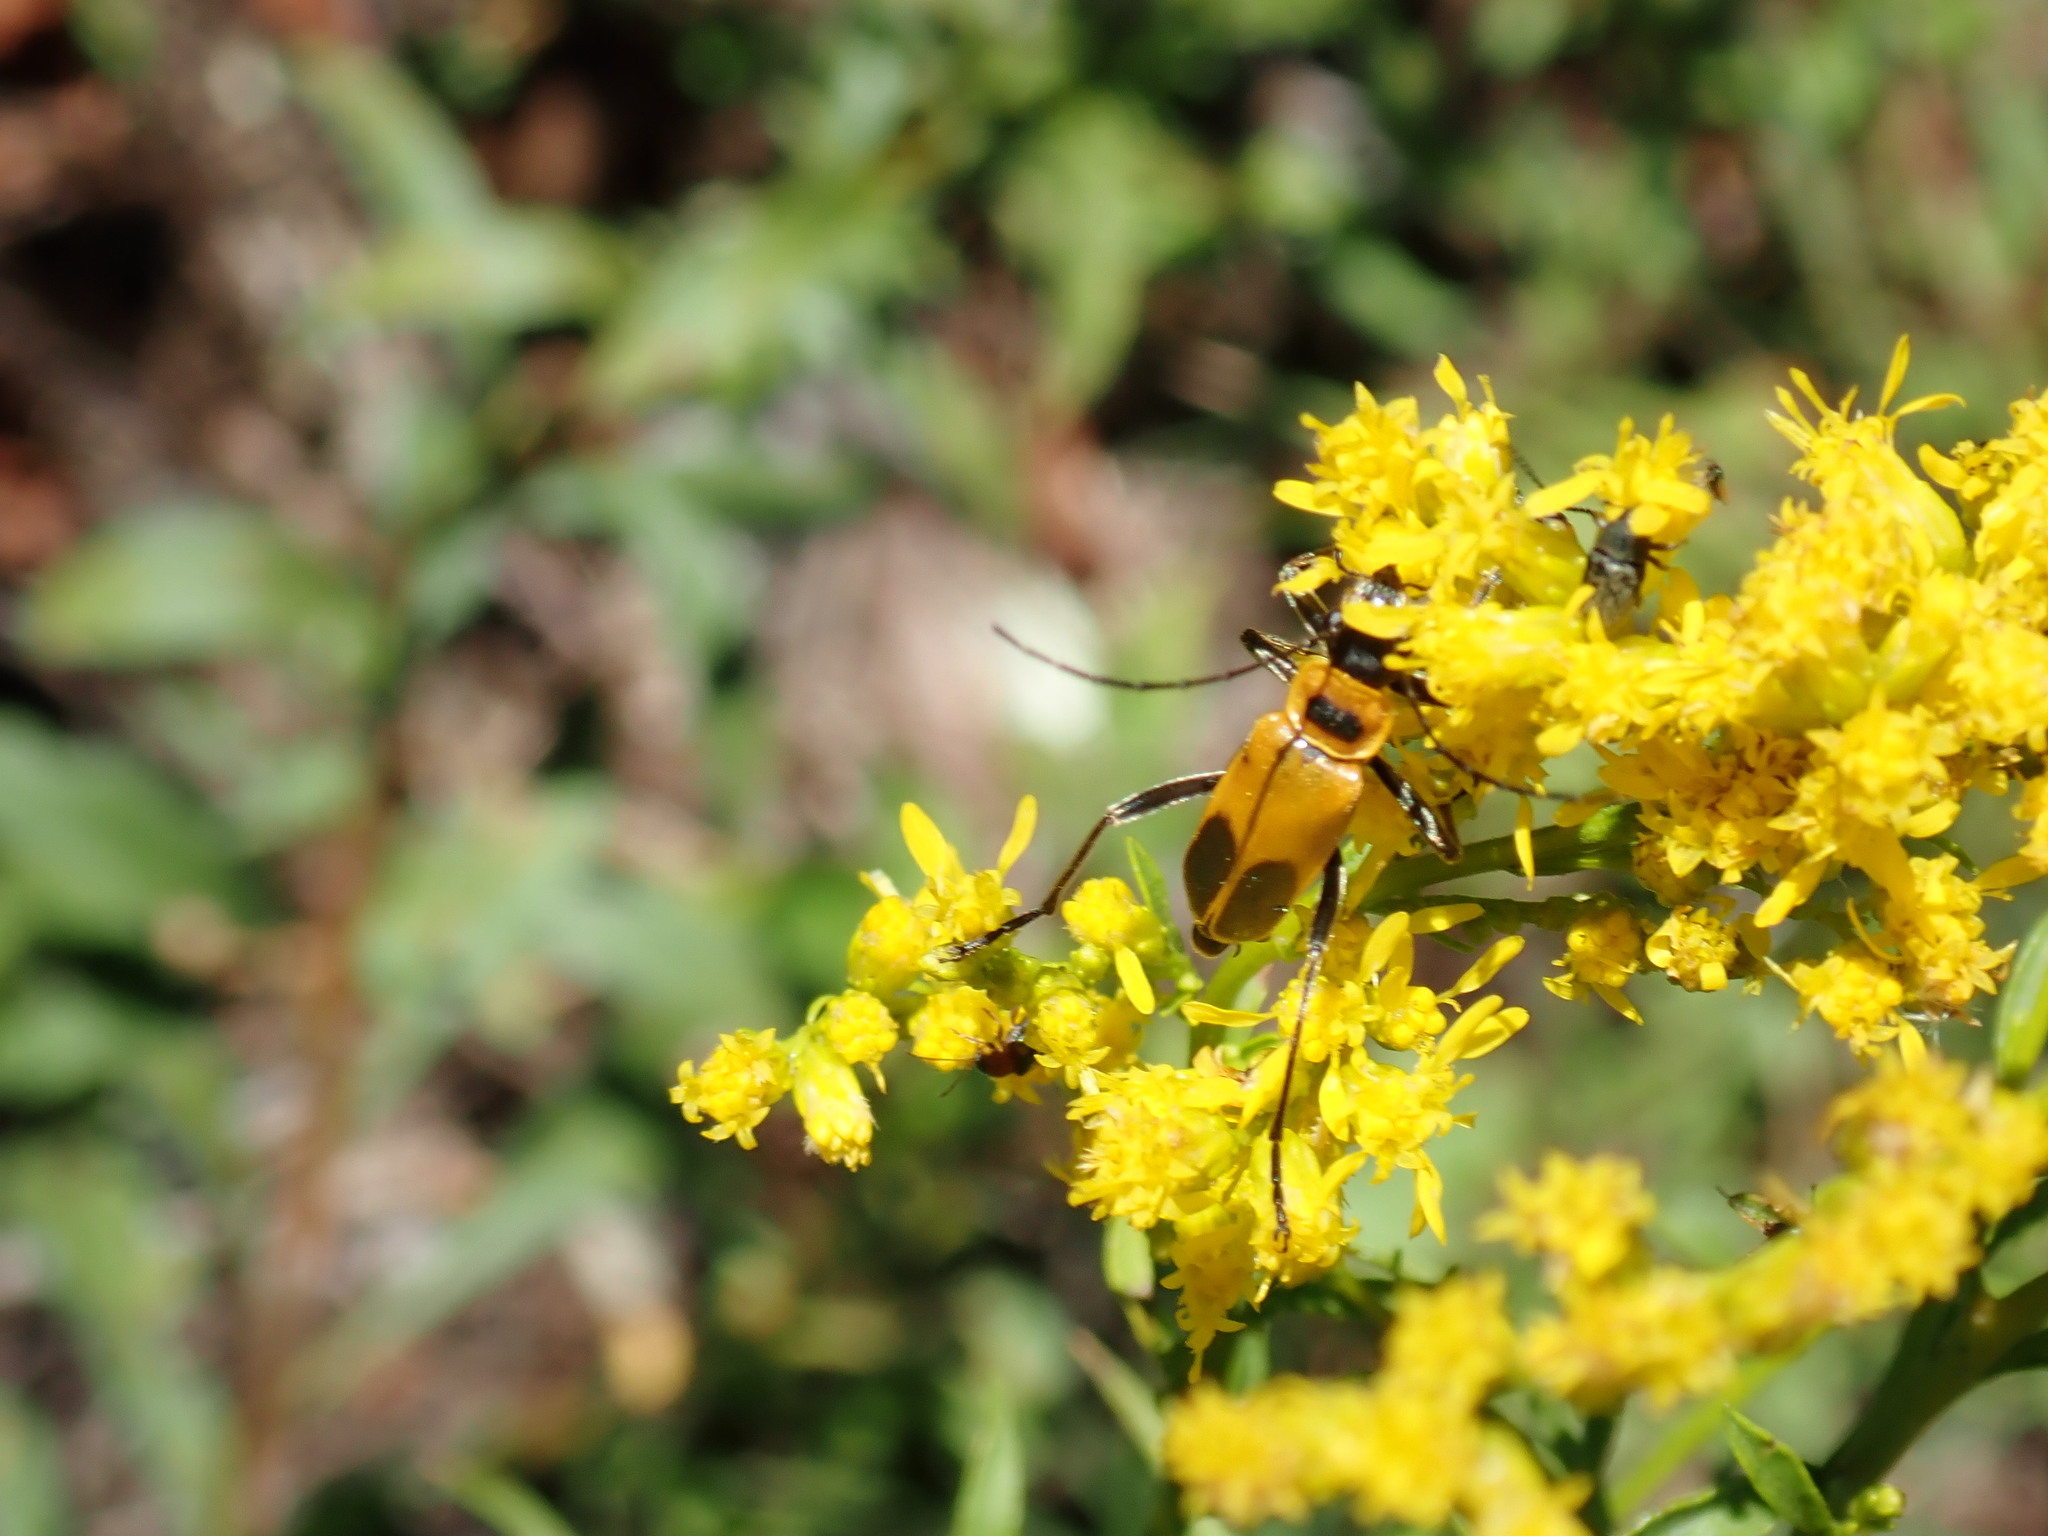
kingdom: Animalia
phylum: Arthropoda
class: Insecta
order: Coleoptera
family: Cantharidae
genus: Chauliognathus
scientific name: Chauliognathus pensylvanicus
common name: Goldenrod soldier beetle
